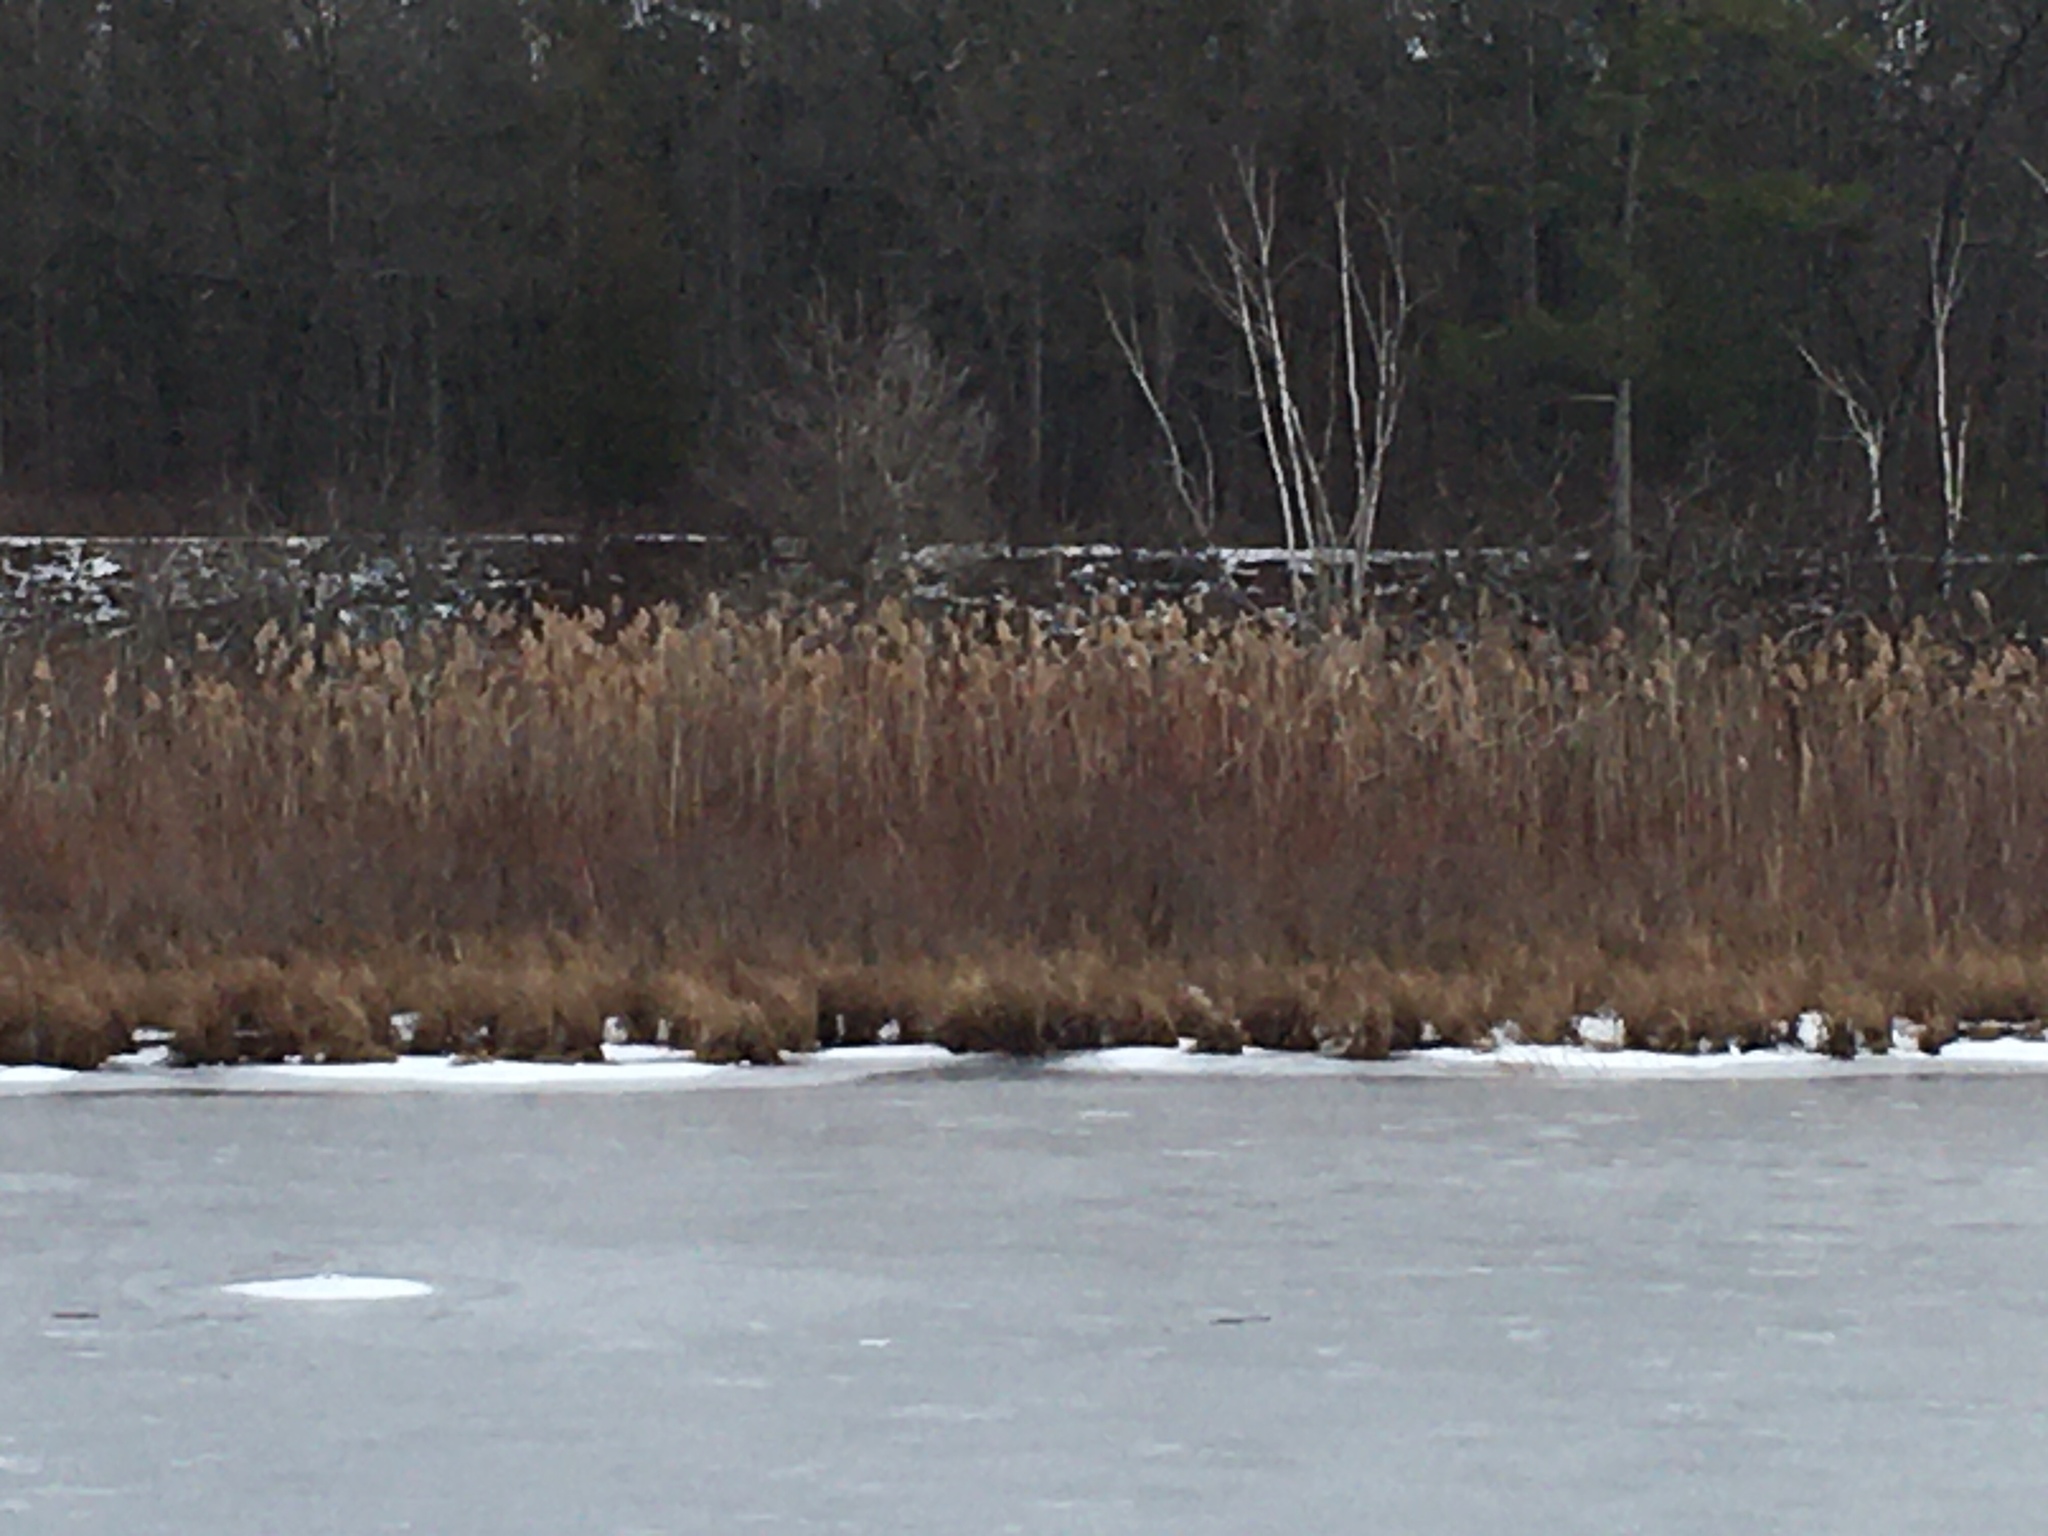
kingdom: Plantae
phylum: Tracheophyta
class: Liliopsida
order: Poales
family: Poaceae
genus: Phragmites
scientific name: Phragmites australis
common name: Common reed
